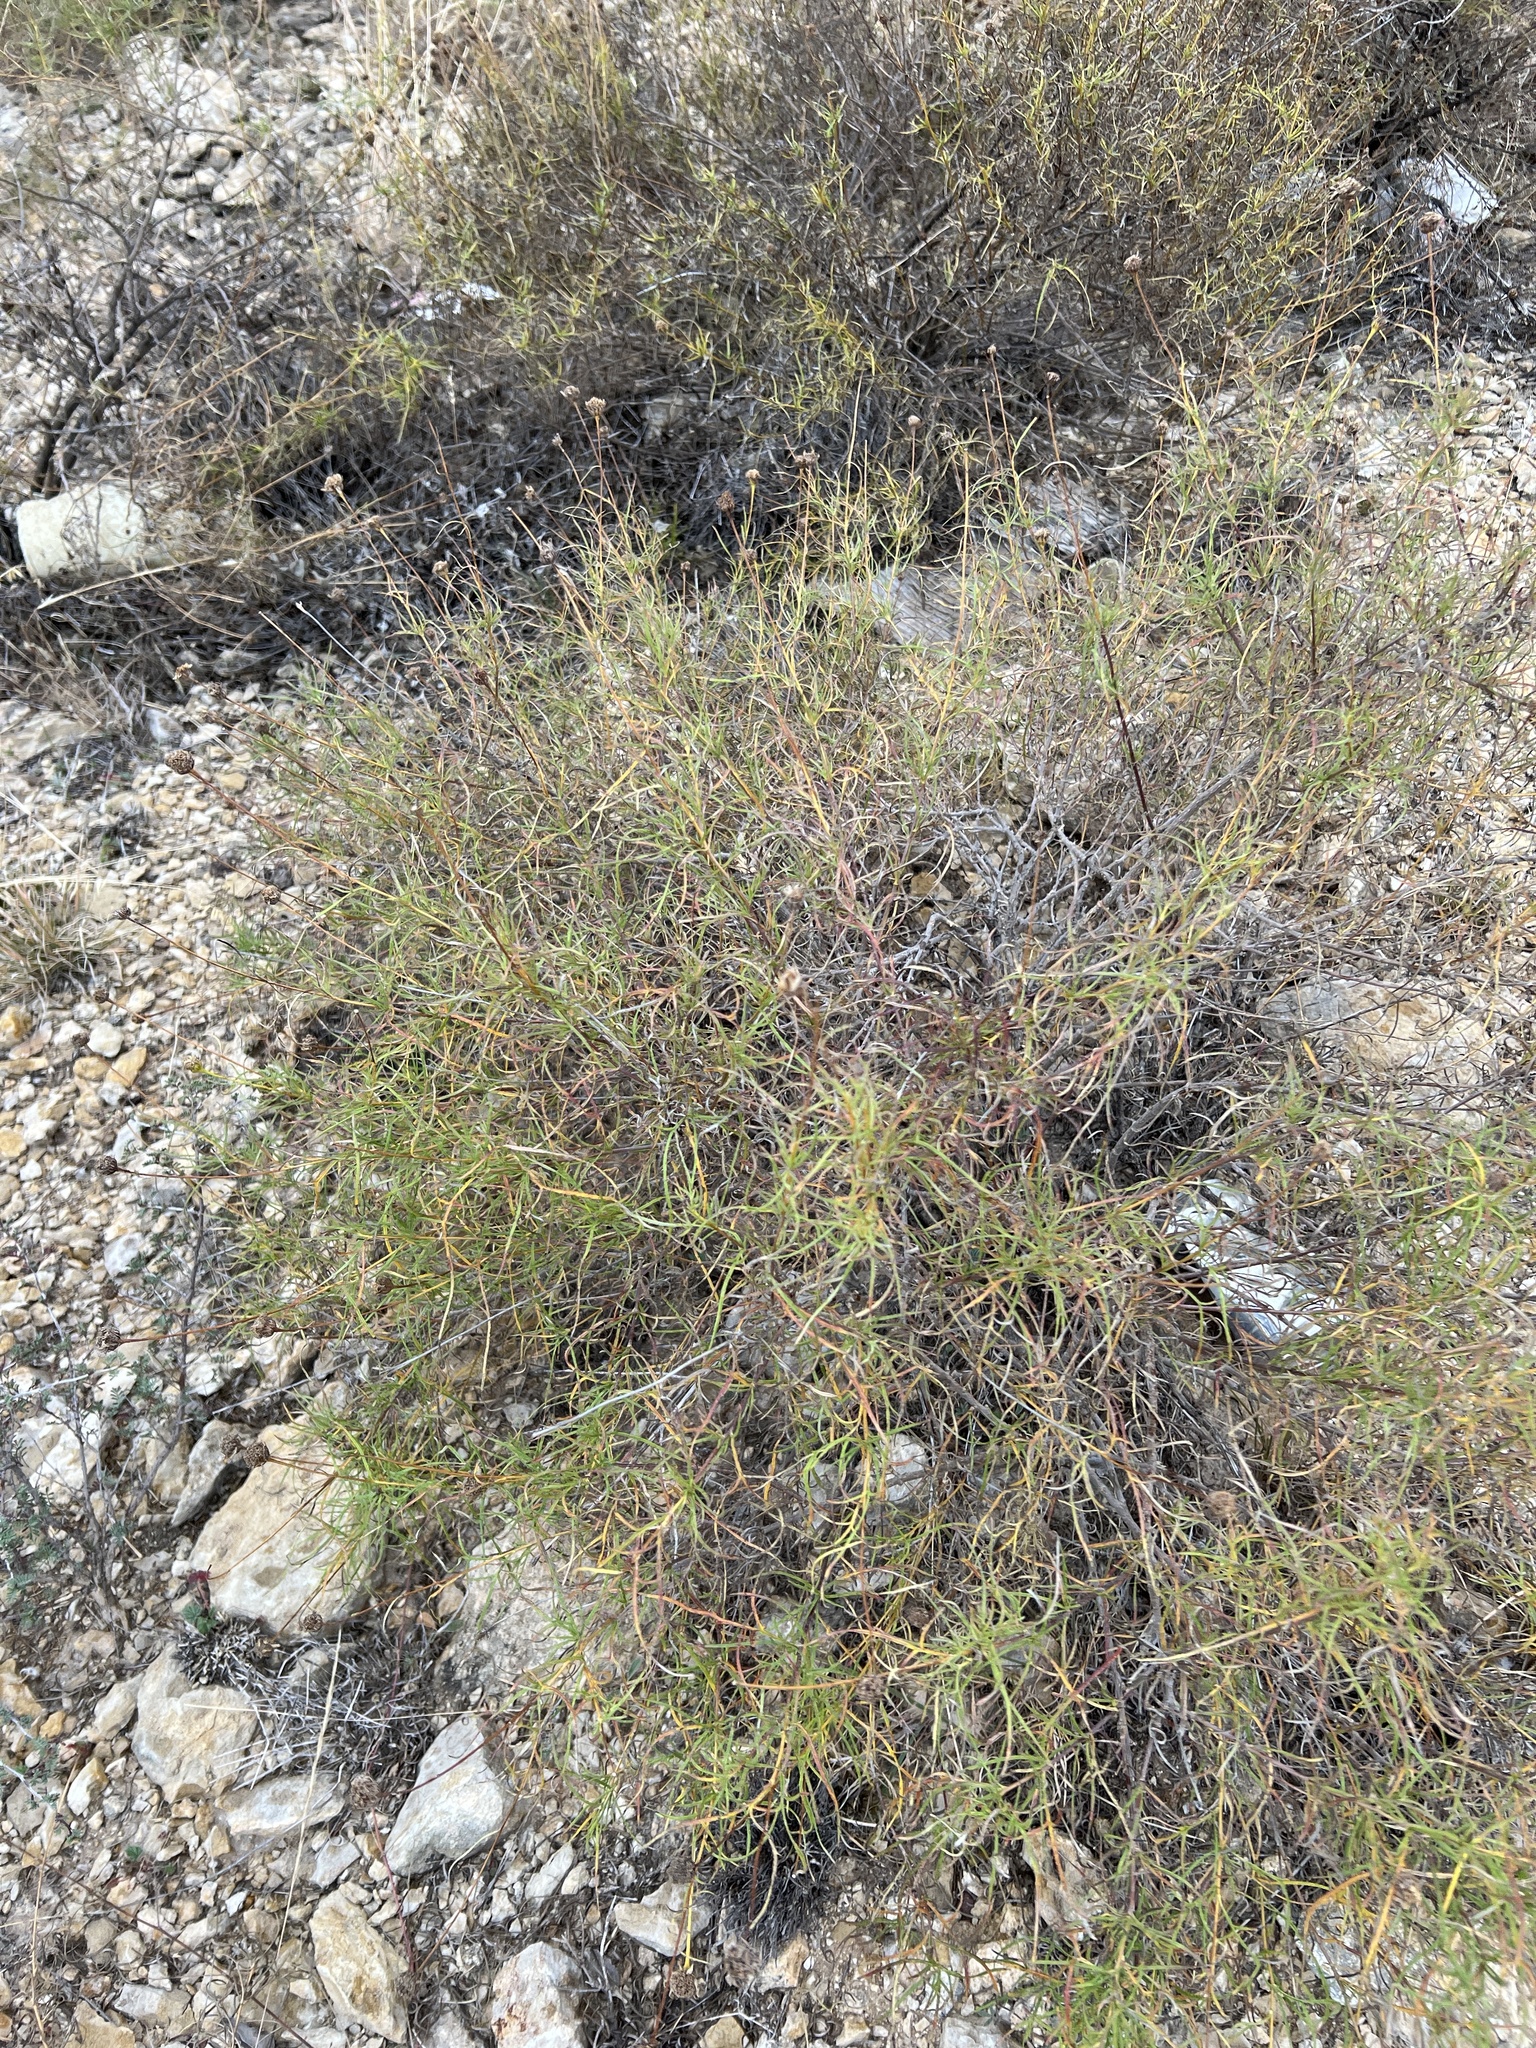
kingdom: Plantae
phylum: Tracheophyta
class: Magnoliopsida
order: Asterales
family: Asteraceae
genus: Sidneya
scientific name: Sidneya tenuifolia
